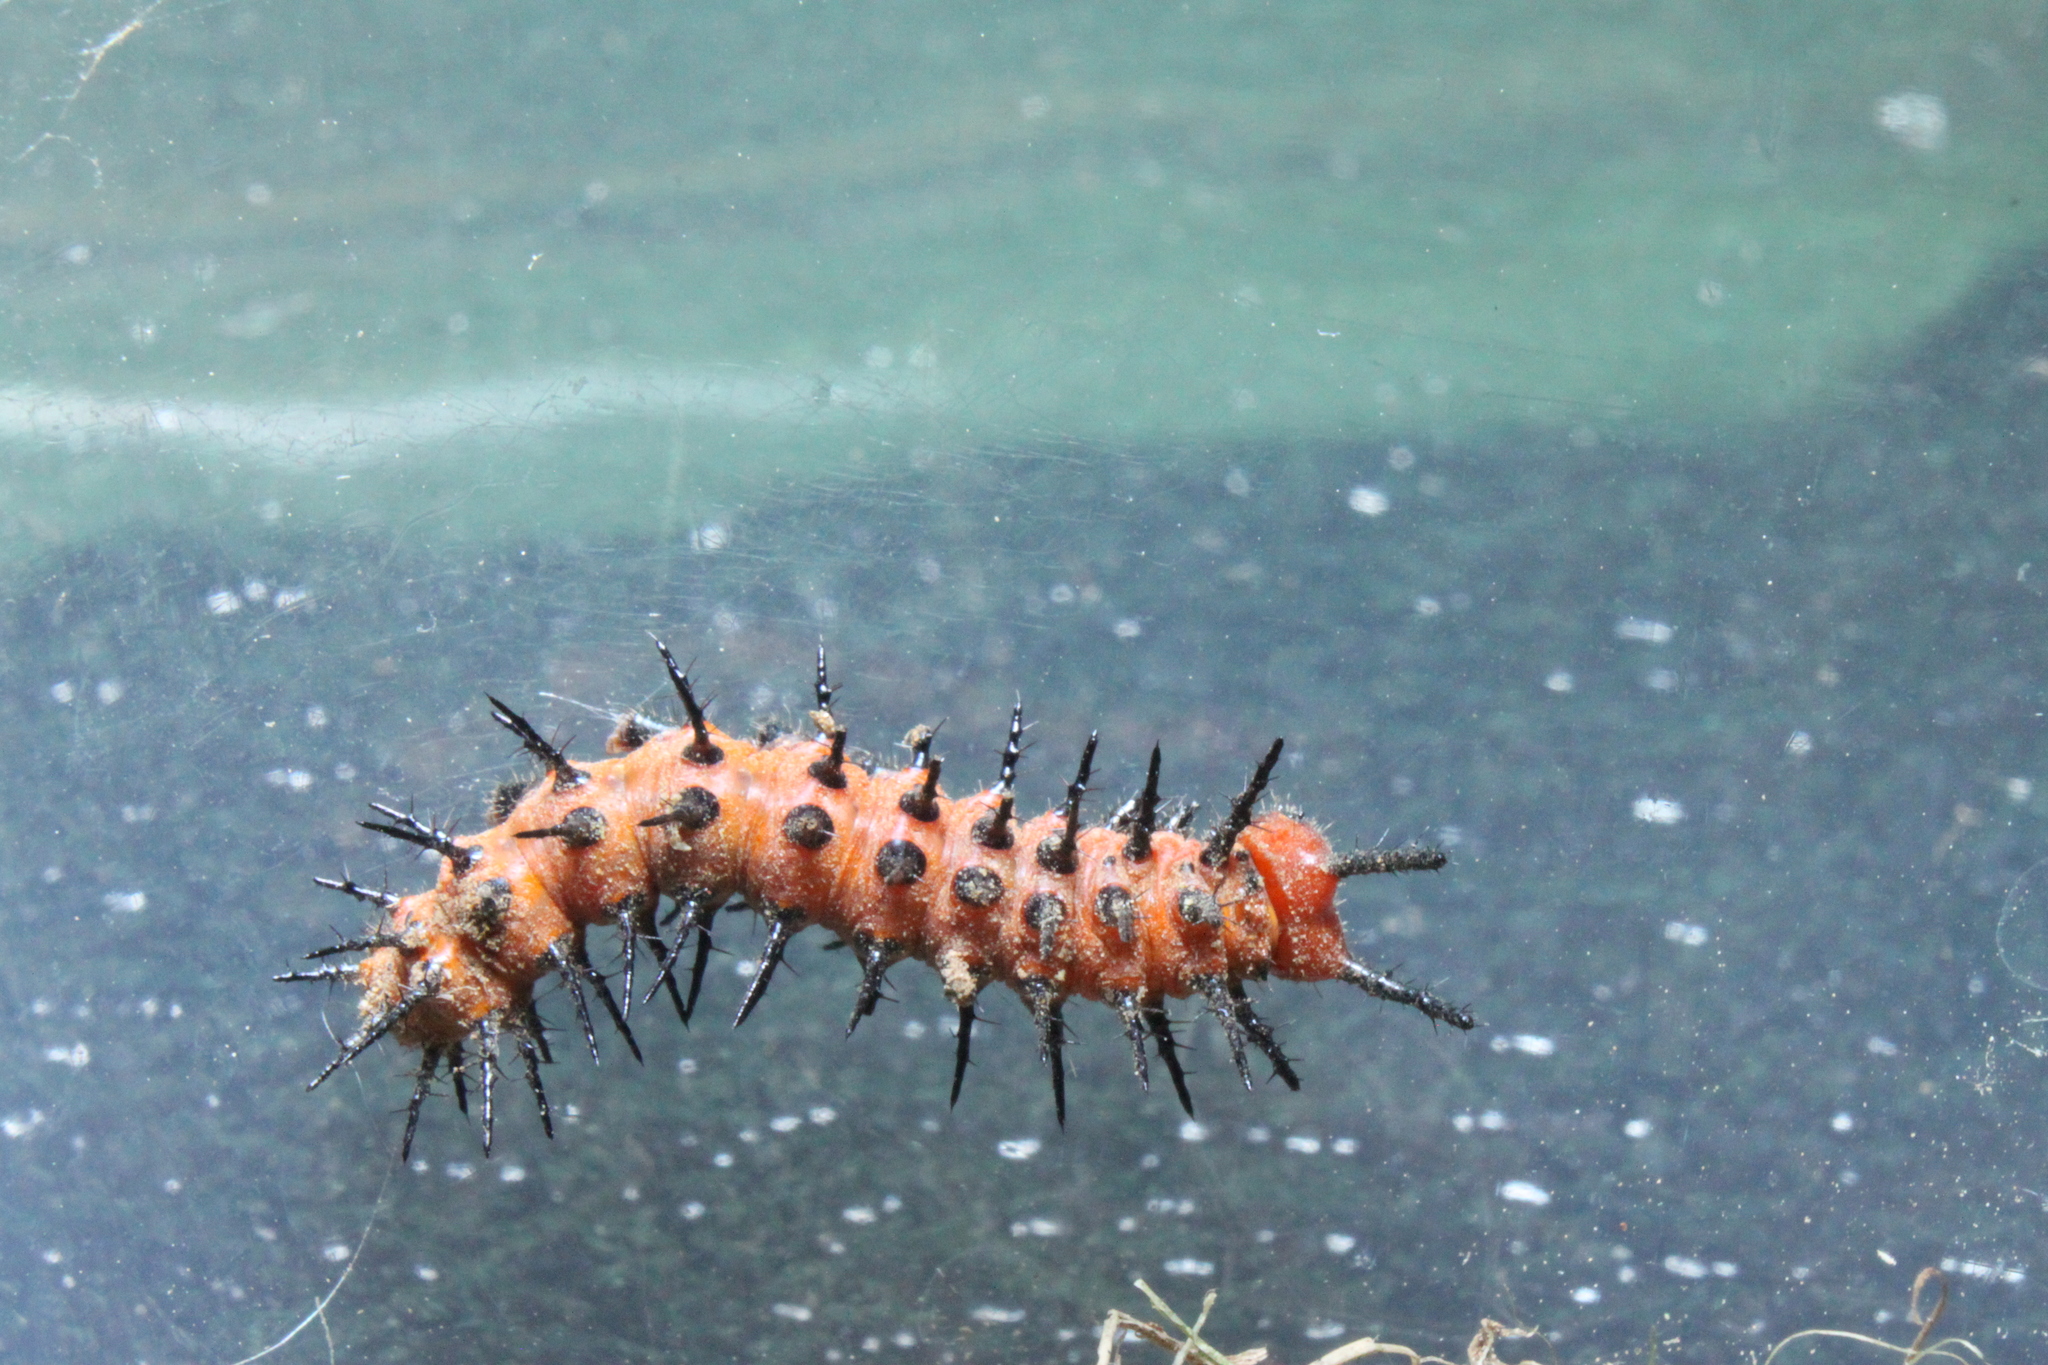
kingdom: Animalia
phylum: Arthropoda
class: Insecta
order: Lepidoptera
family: Nymphalidae
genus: Dione
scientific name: Dione vanillae
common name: Gulf fritillary
